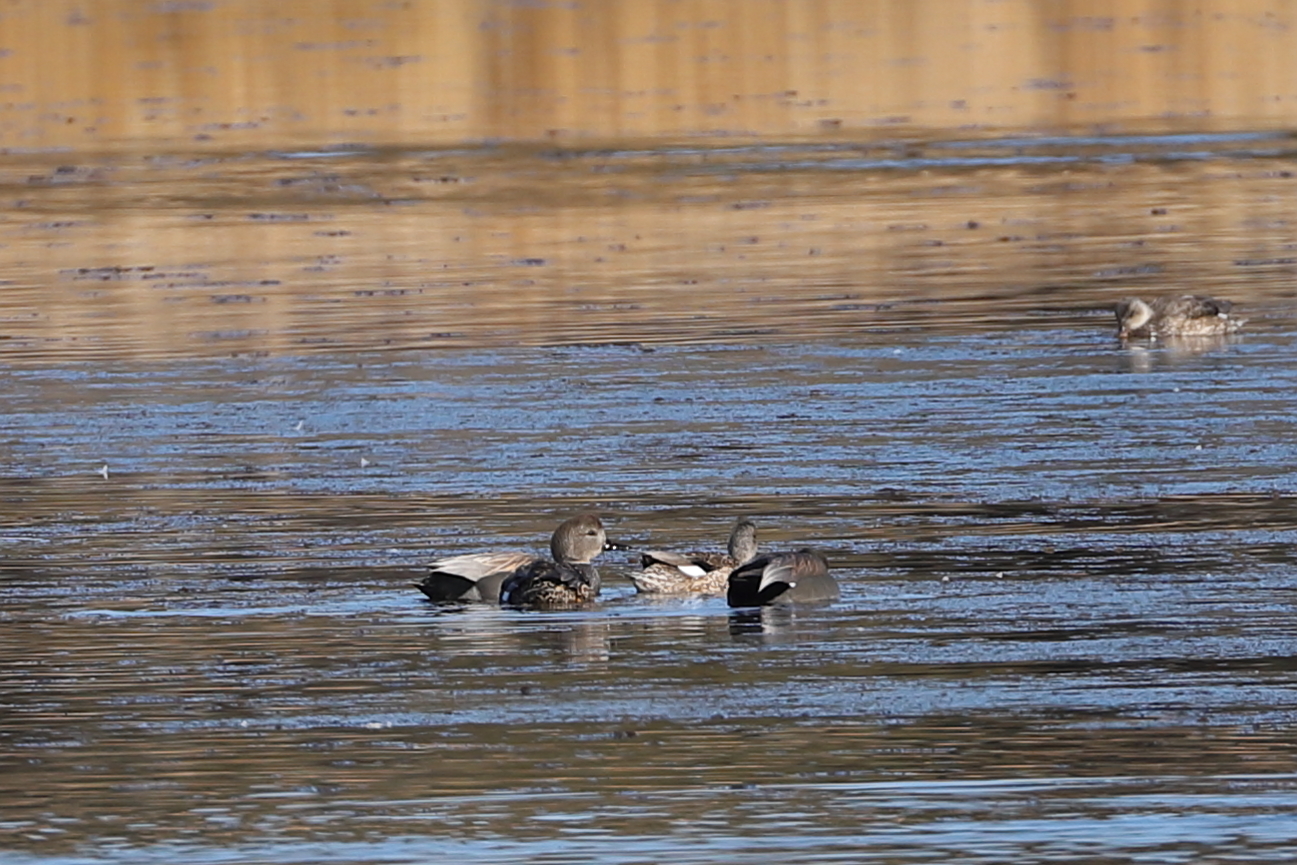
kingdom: Animalia
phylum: Chordata
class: Aves
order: Anseriformes
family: Anatidae
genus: Mareca
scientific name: Mareca strepera
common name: Gadwall
